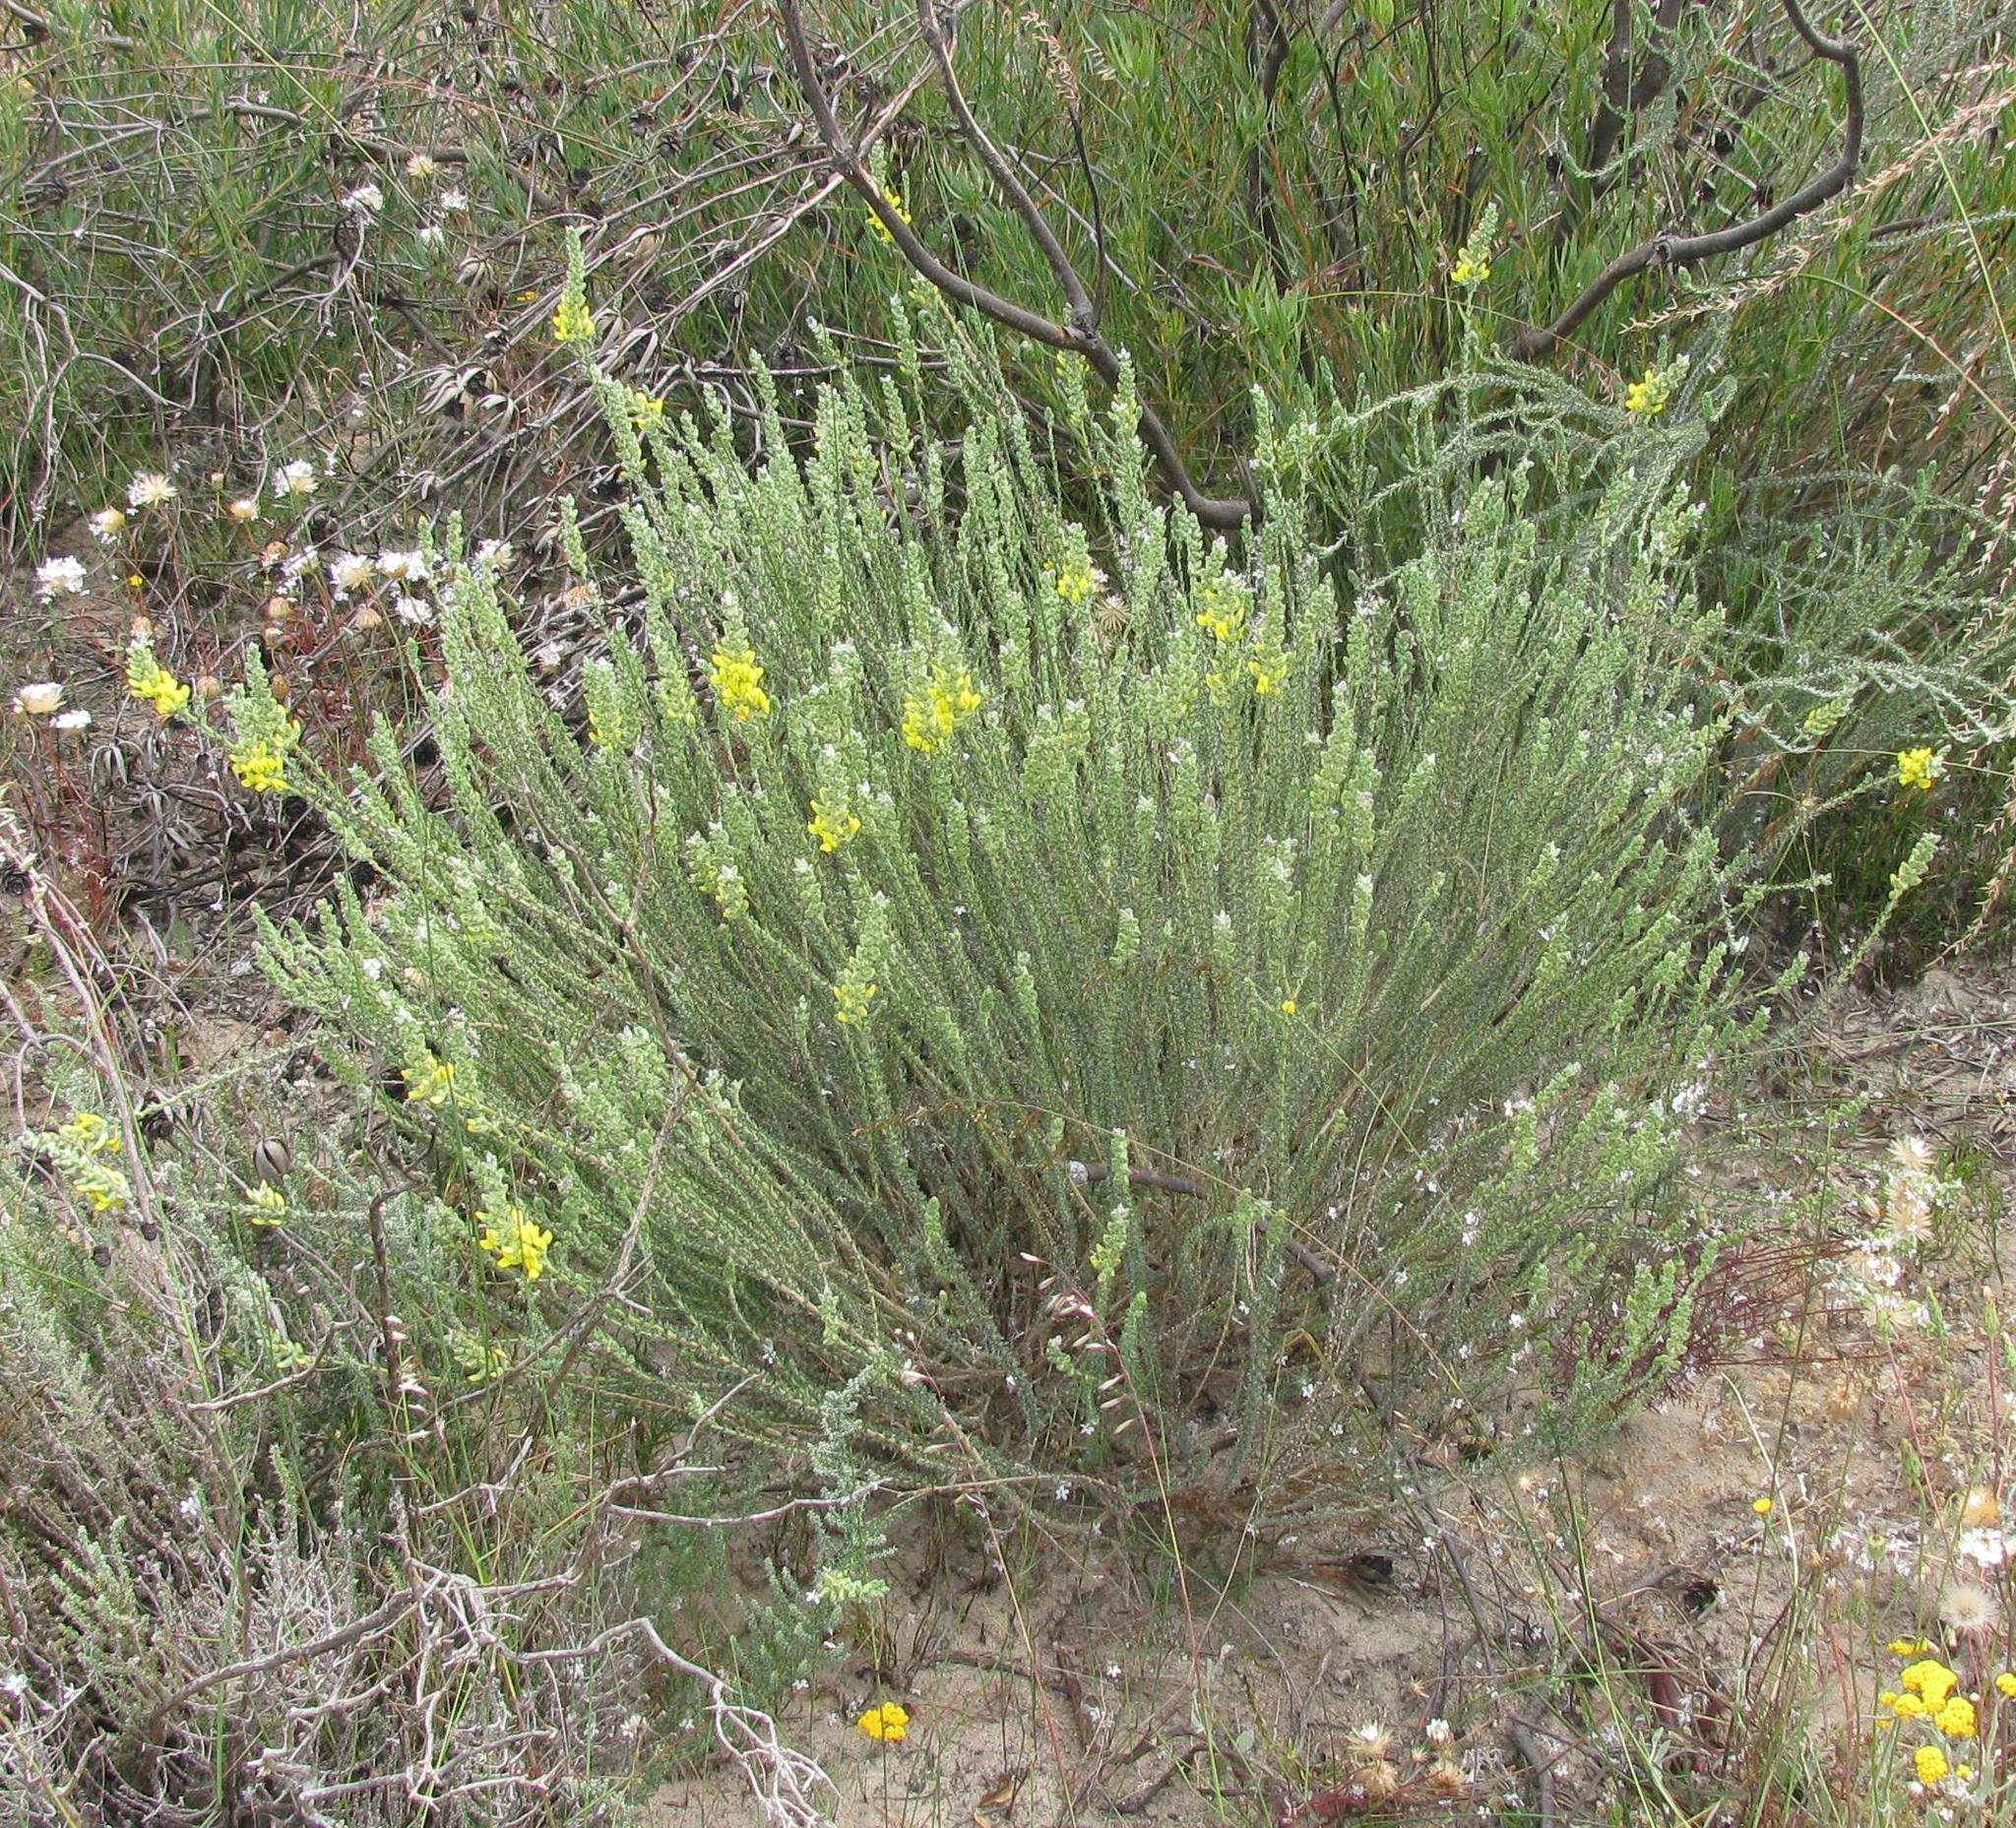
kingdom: Plantae
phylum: Tracheophyta
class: Magnoliopsida
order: Fabales
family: Fabaceae
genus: Aspalathus
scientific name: Aspalathus quinquefolia
